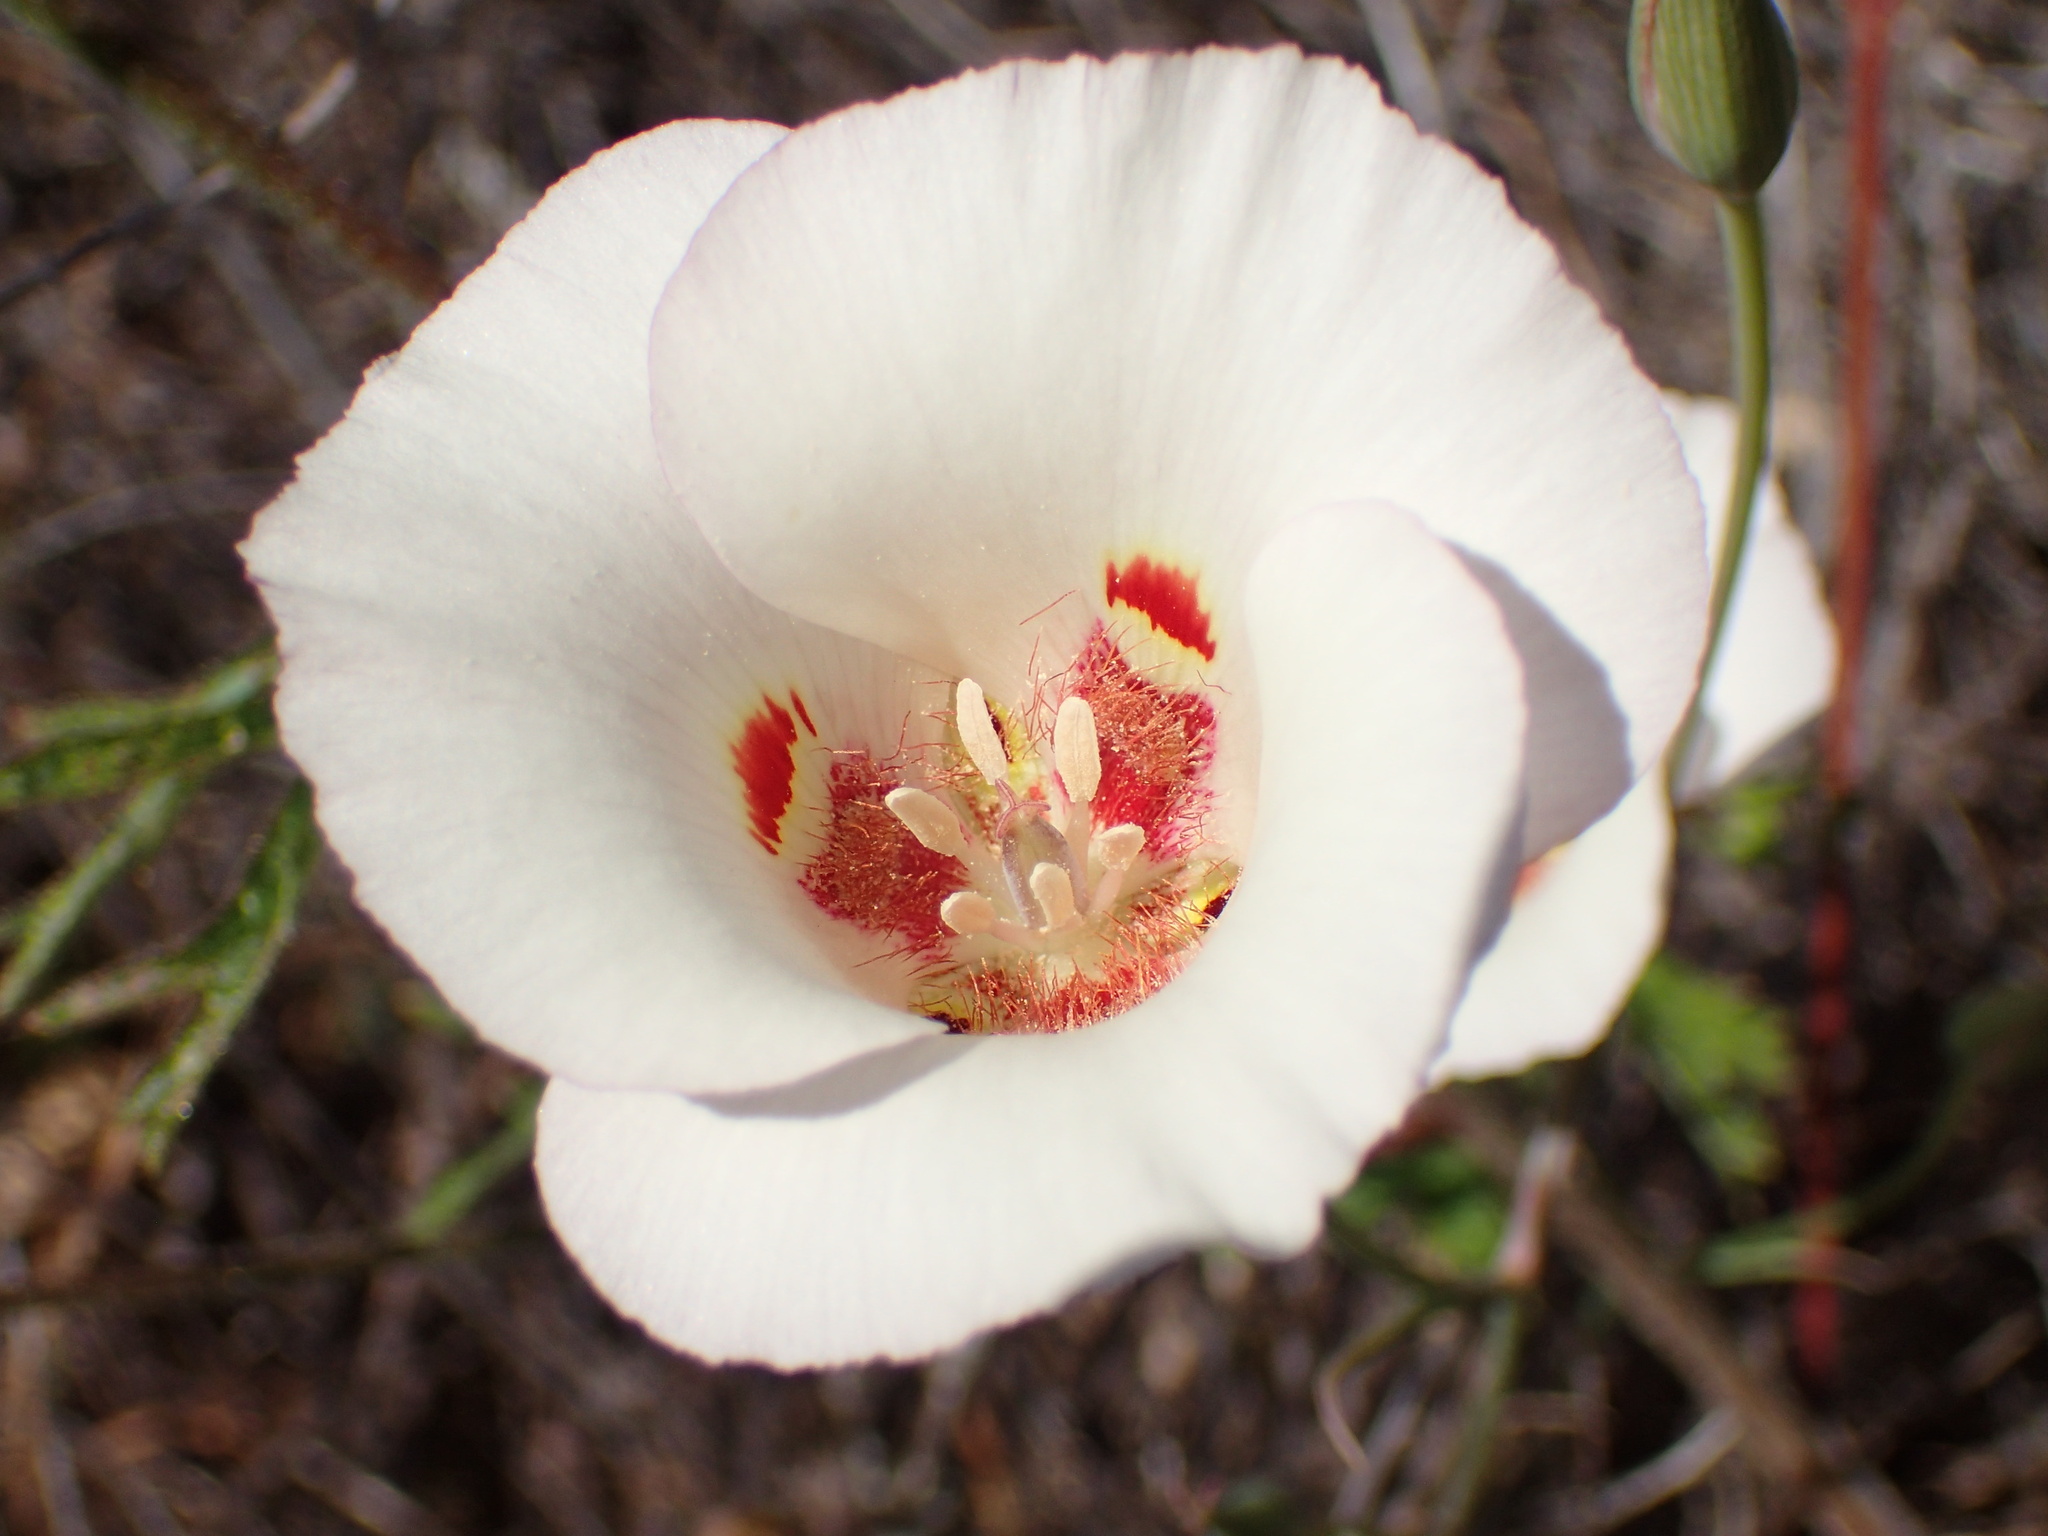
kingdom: Plantae
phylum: Tracheophyta
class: Liliopsida
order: Liliales
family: Liliaceae
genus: Calochortus
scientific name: Calochortus venustus
